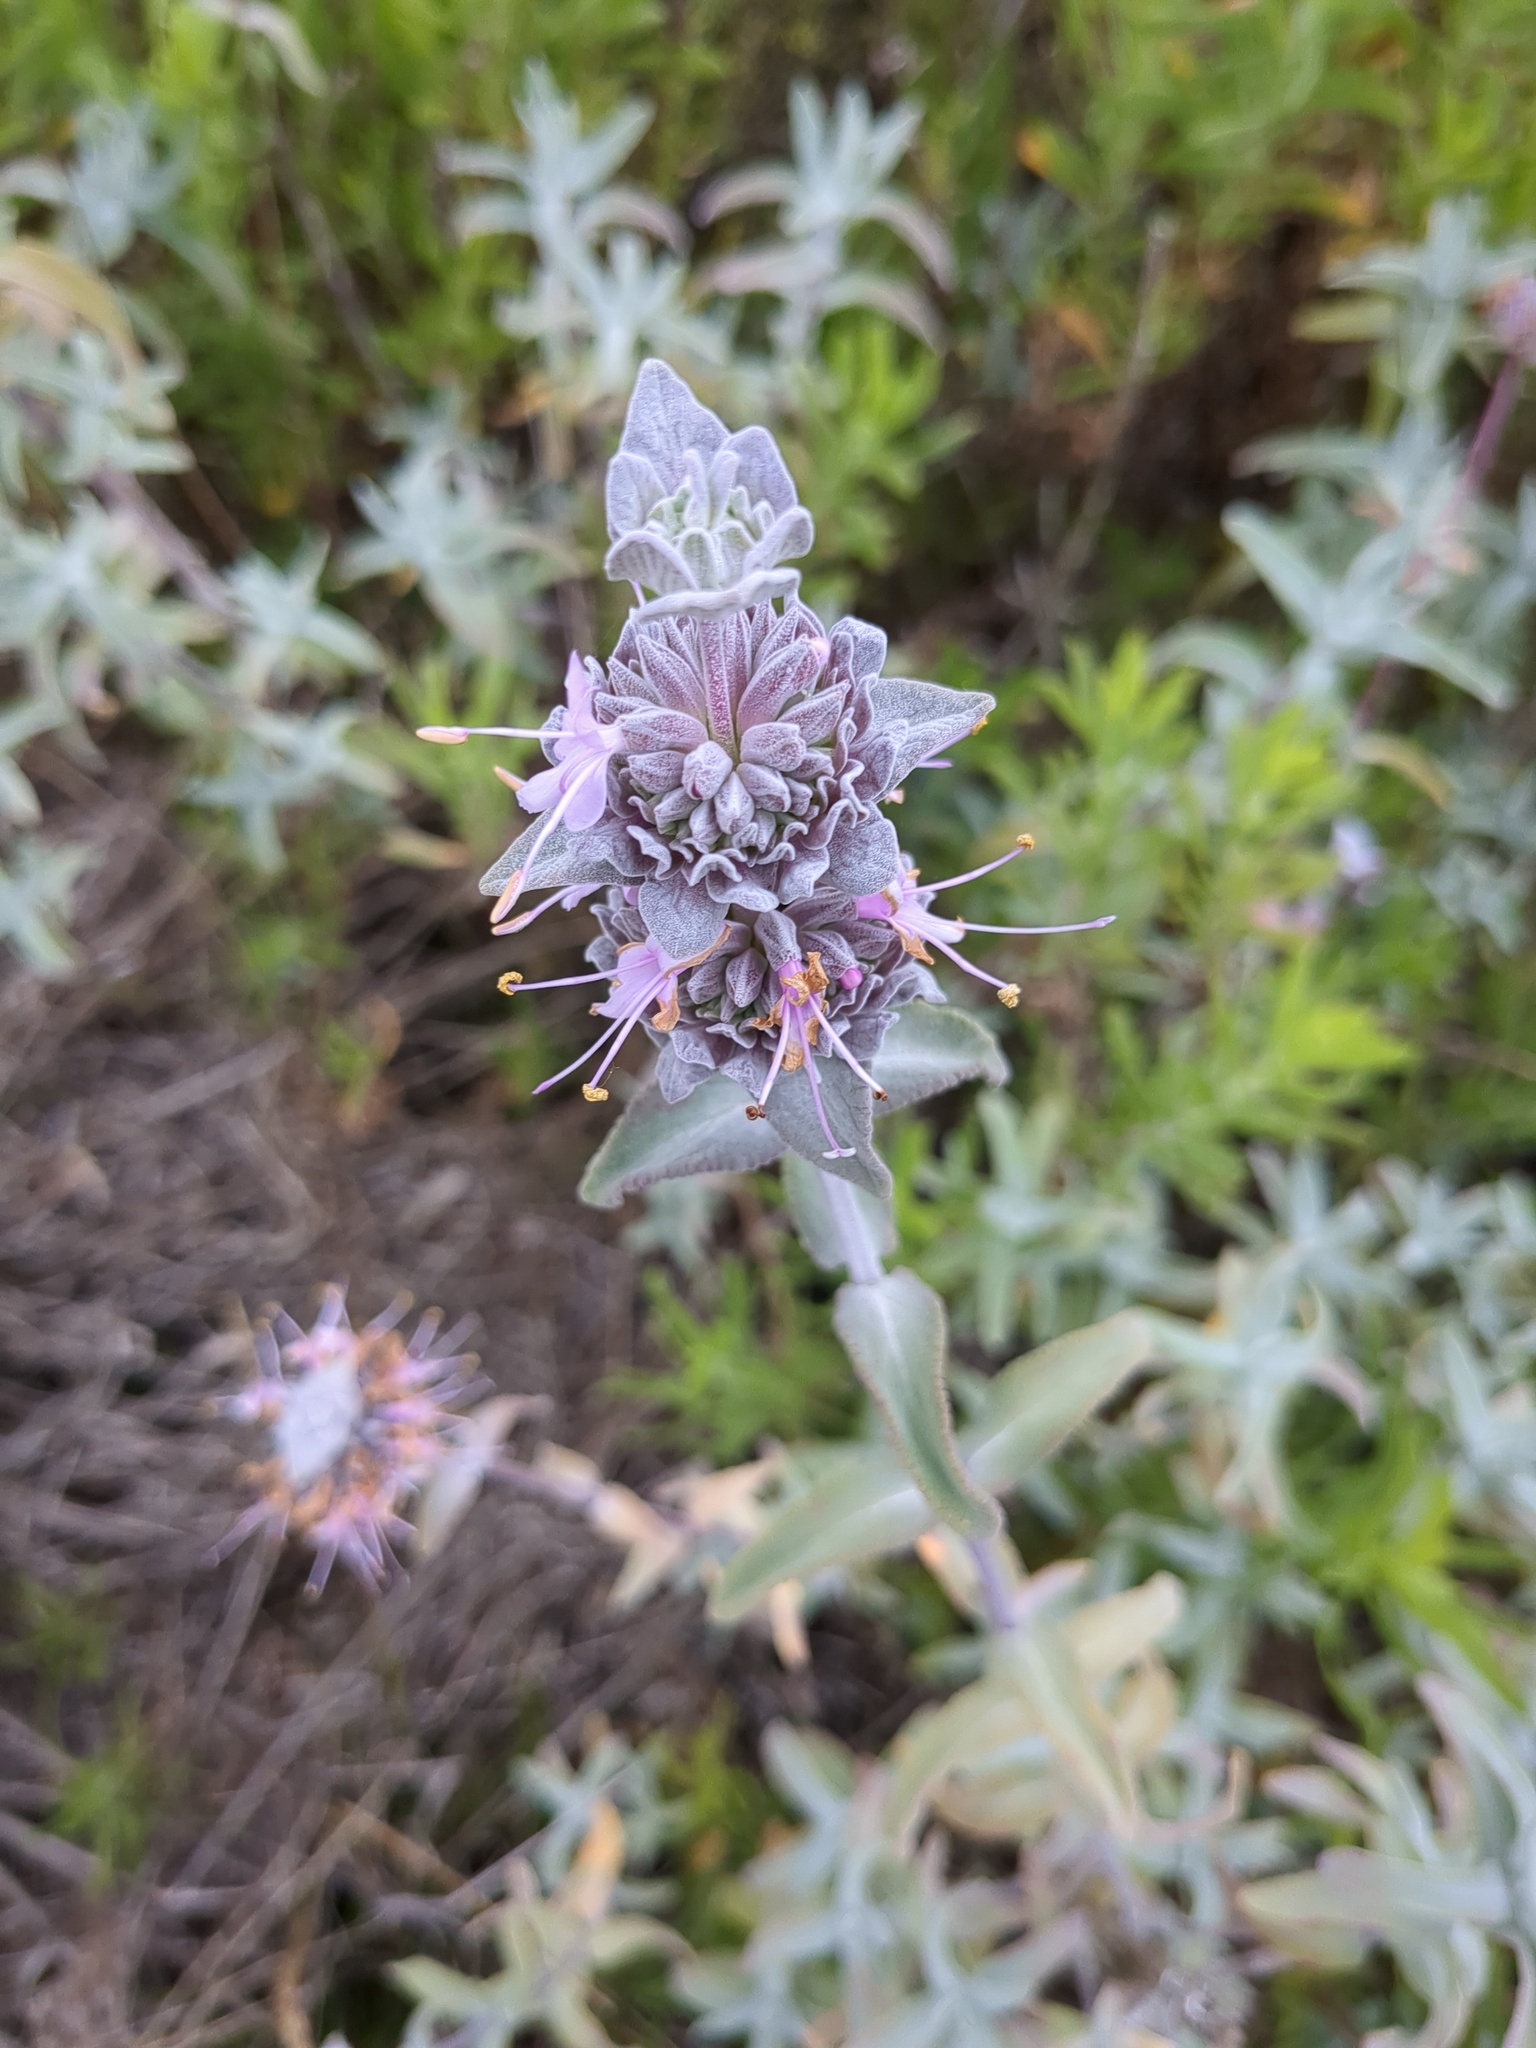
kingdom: Plantae
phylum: Tracheophyta
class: Magnoliopsida
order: Lamiales
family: Lamiaceae
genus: Salvia
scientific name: Salvia leucophylla
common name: Purple sage
